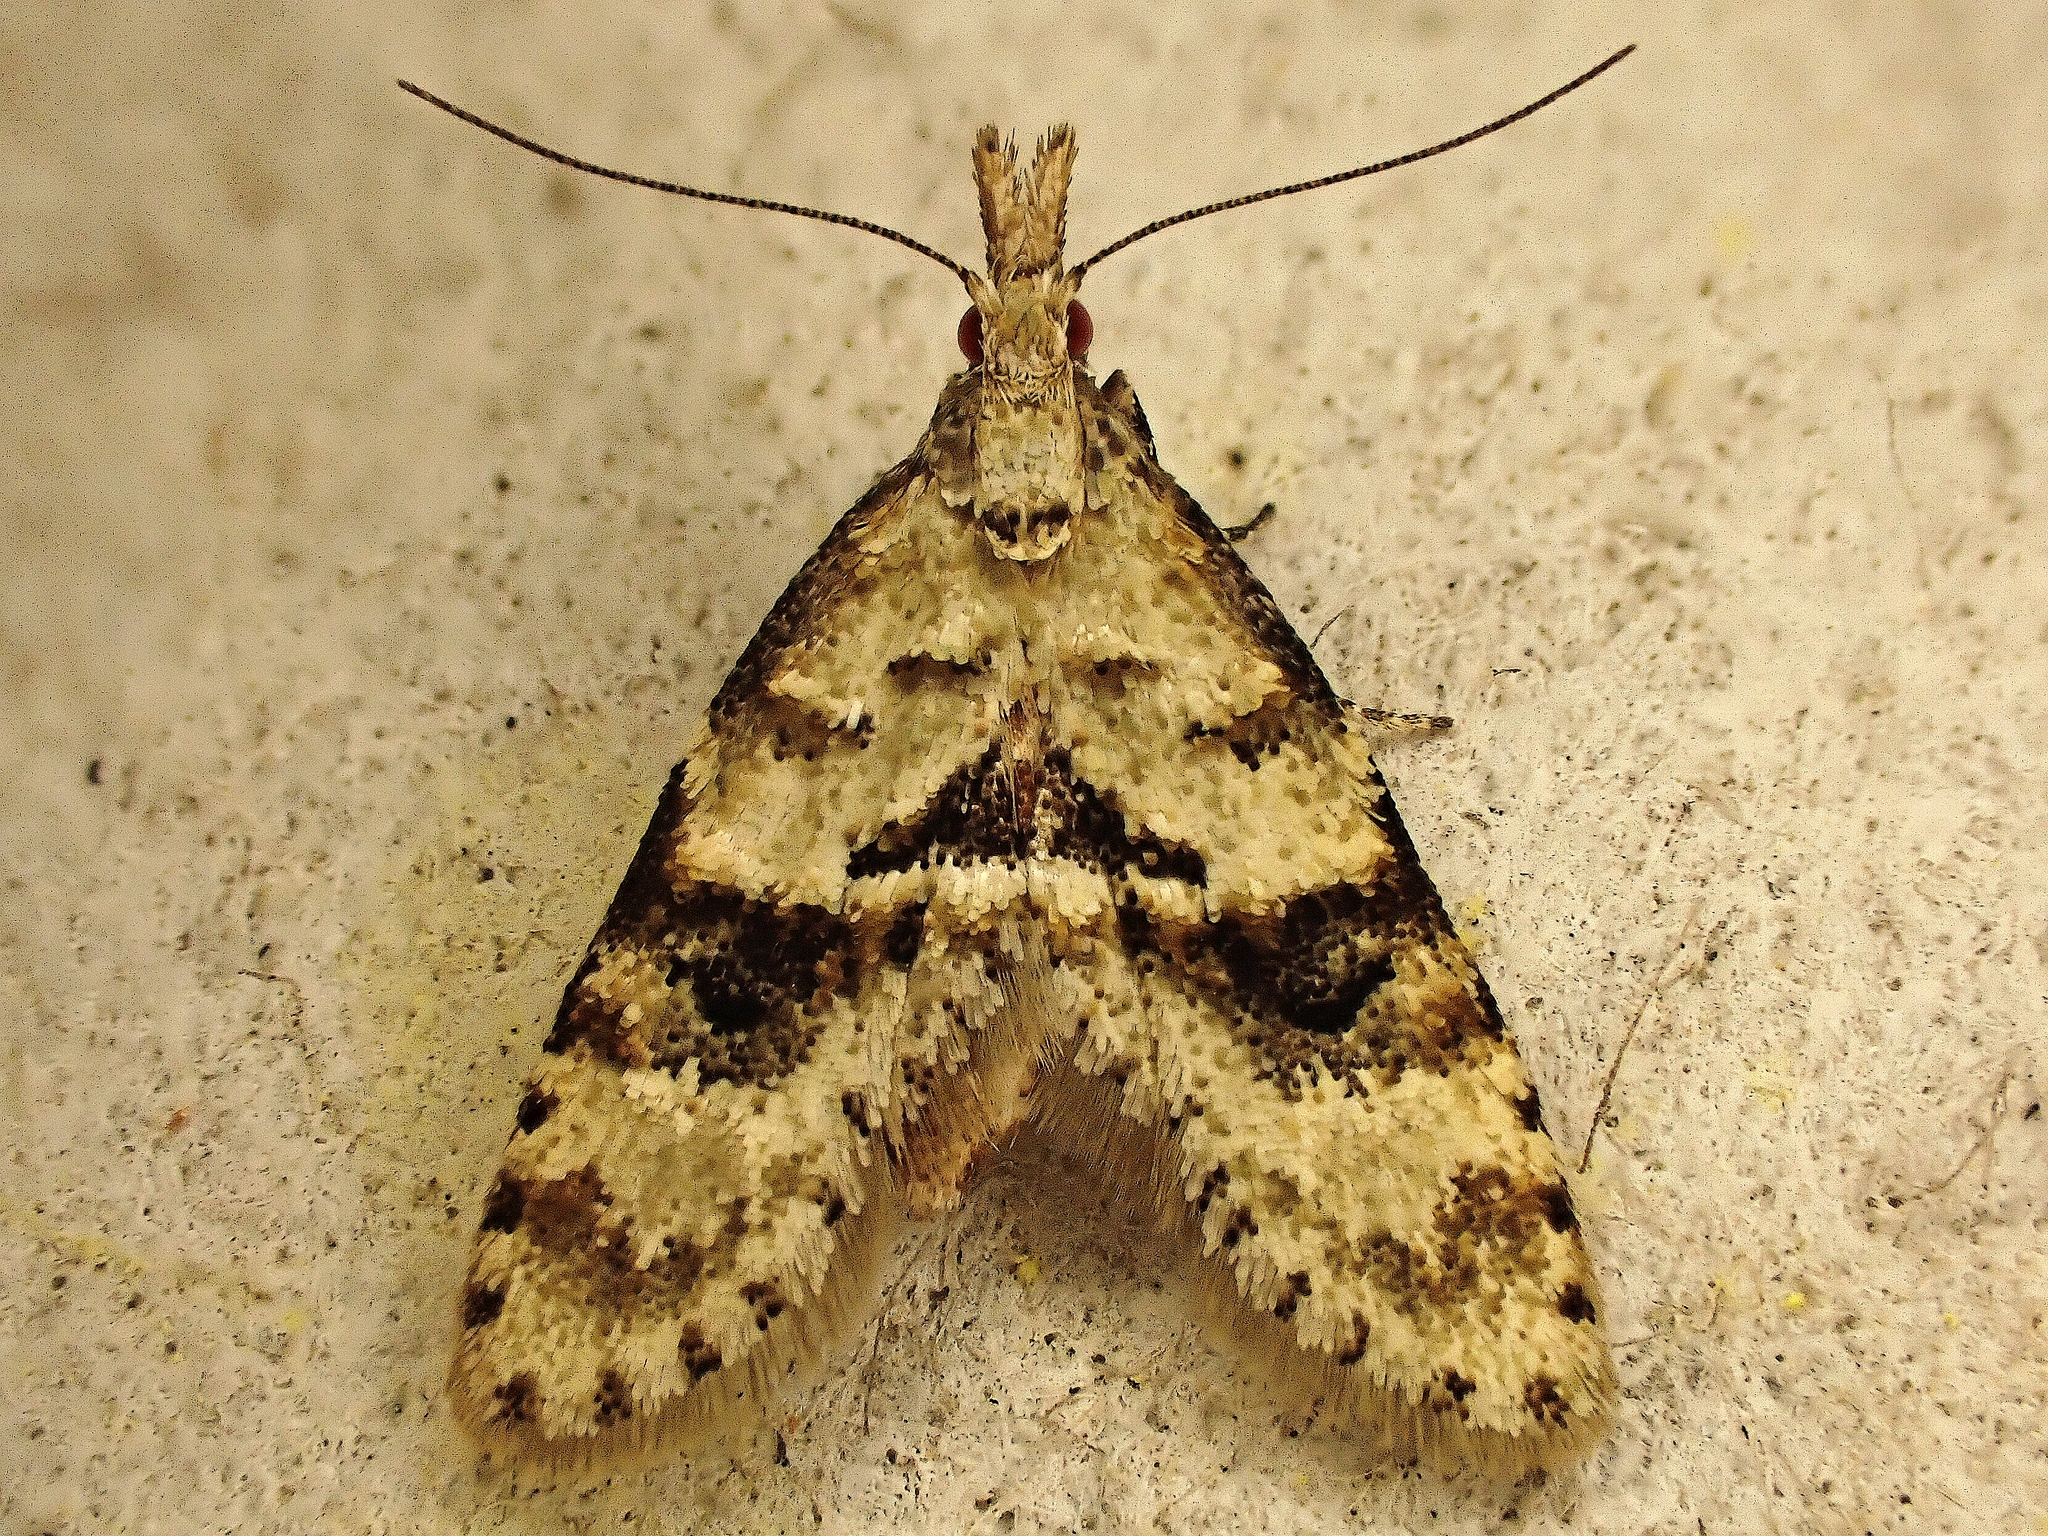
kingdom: Animalia
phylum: Arthropoda
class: Insecta
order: Lepidoptera
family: Copromorphidae
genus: Isonomeutis
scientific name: Isonomeutis restincta
